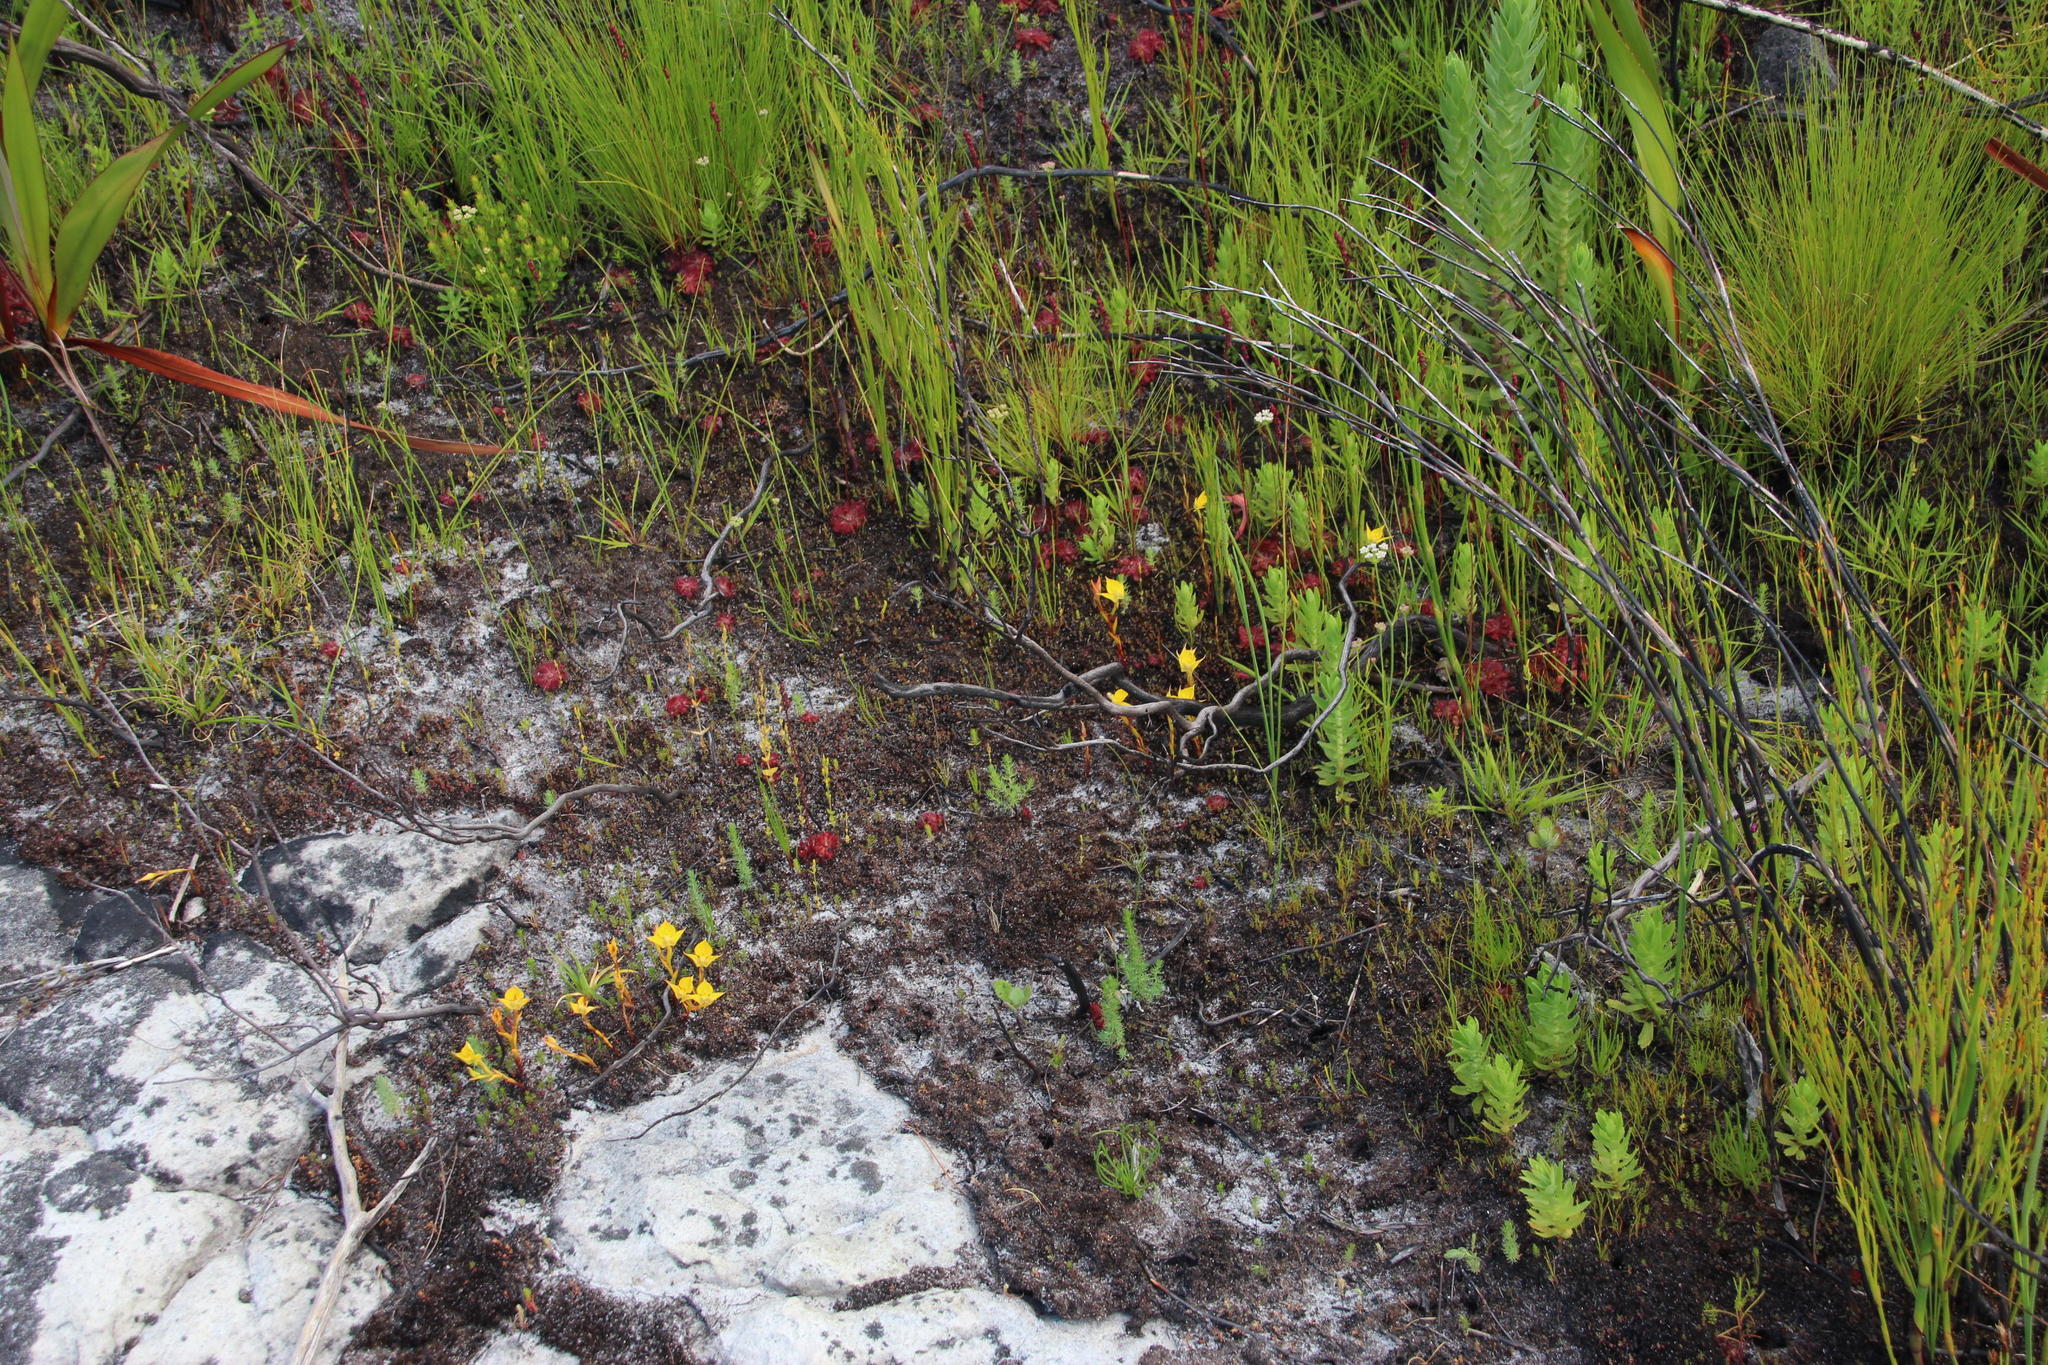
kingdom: Plantae
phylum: Tracheophyta
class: Liliopsida
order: Asparagales
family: Orchidaceae
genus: Disa
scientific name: Disa tenuifolia
